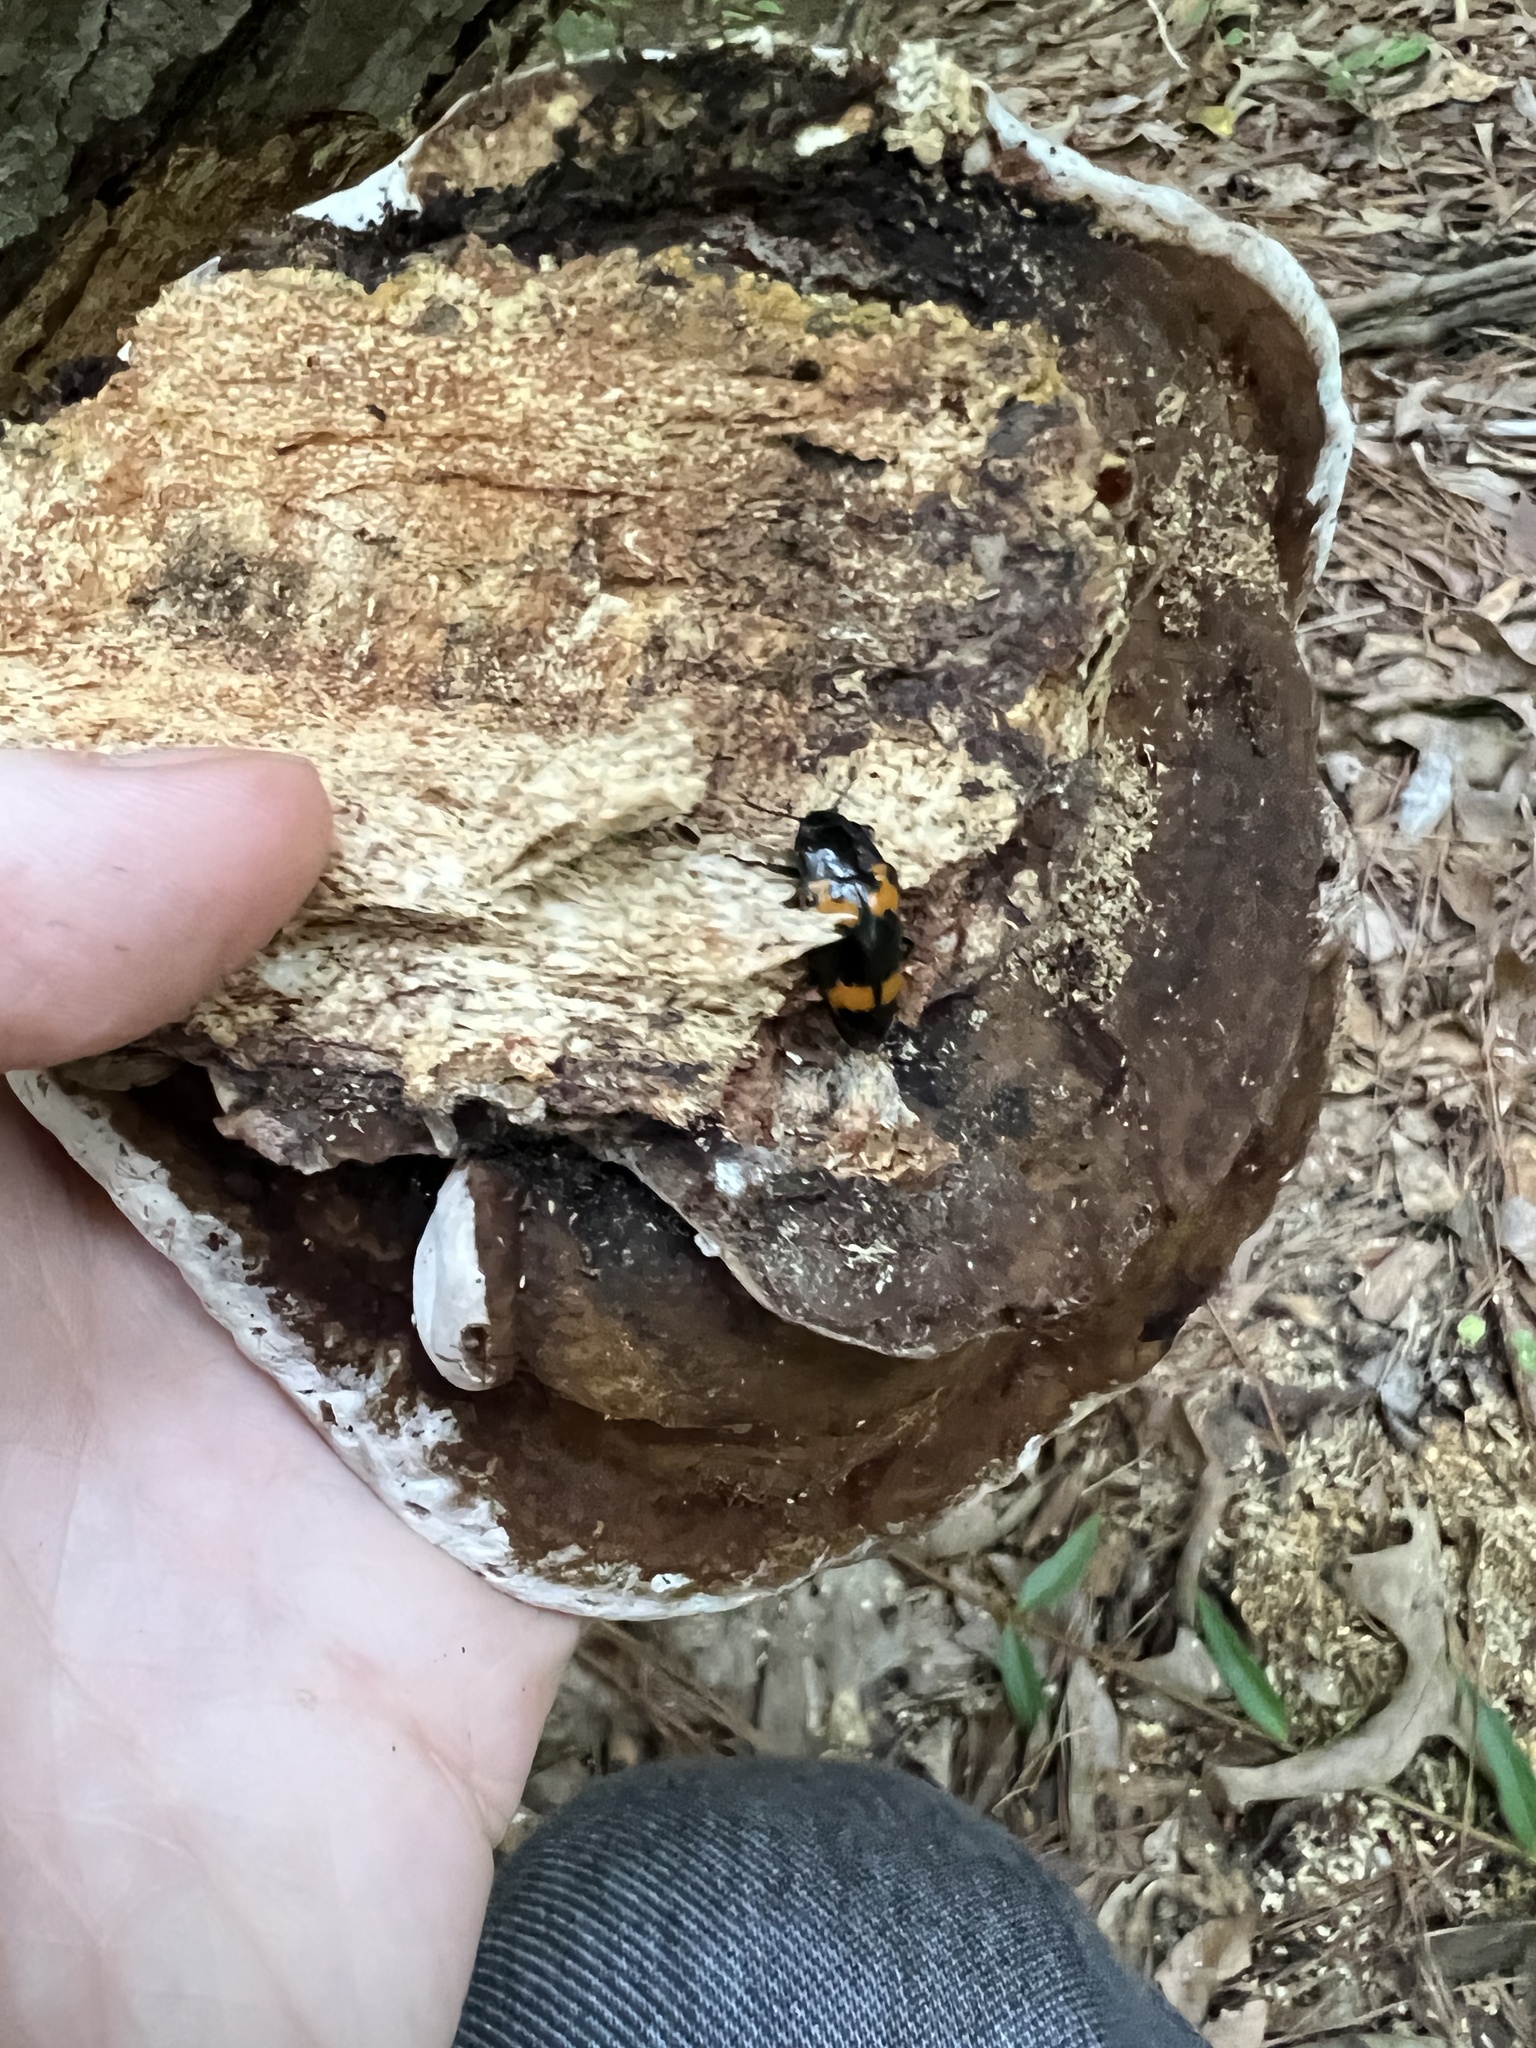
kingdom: Animalia
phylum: Arthropoda
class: Insecta
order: Coleoptera
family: Erotylidae
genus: Megalodacne
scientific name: Megalodacne heros
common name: Pleasing fungus beetle
